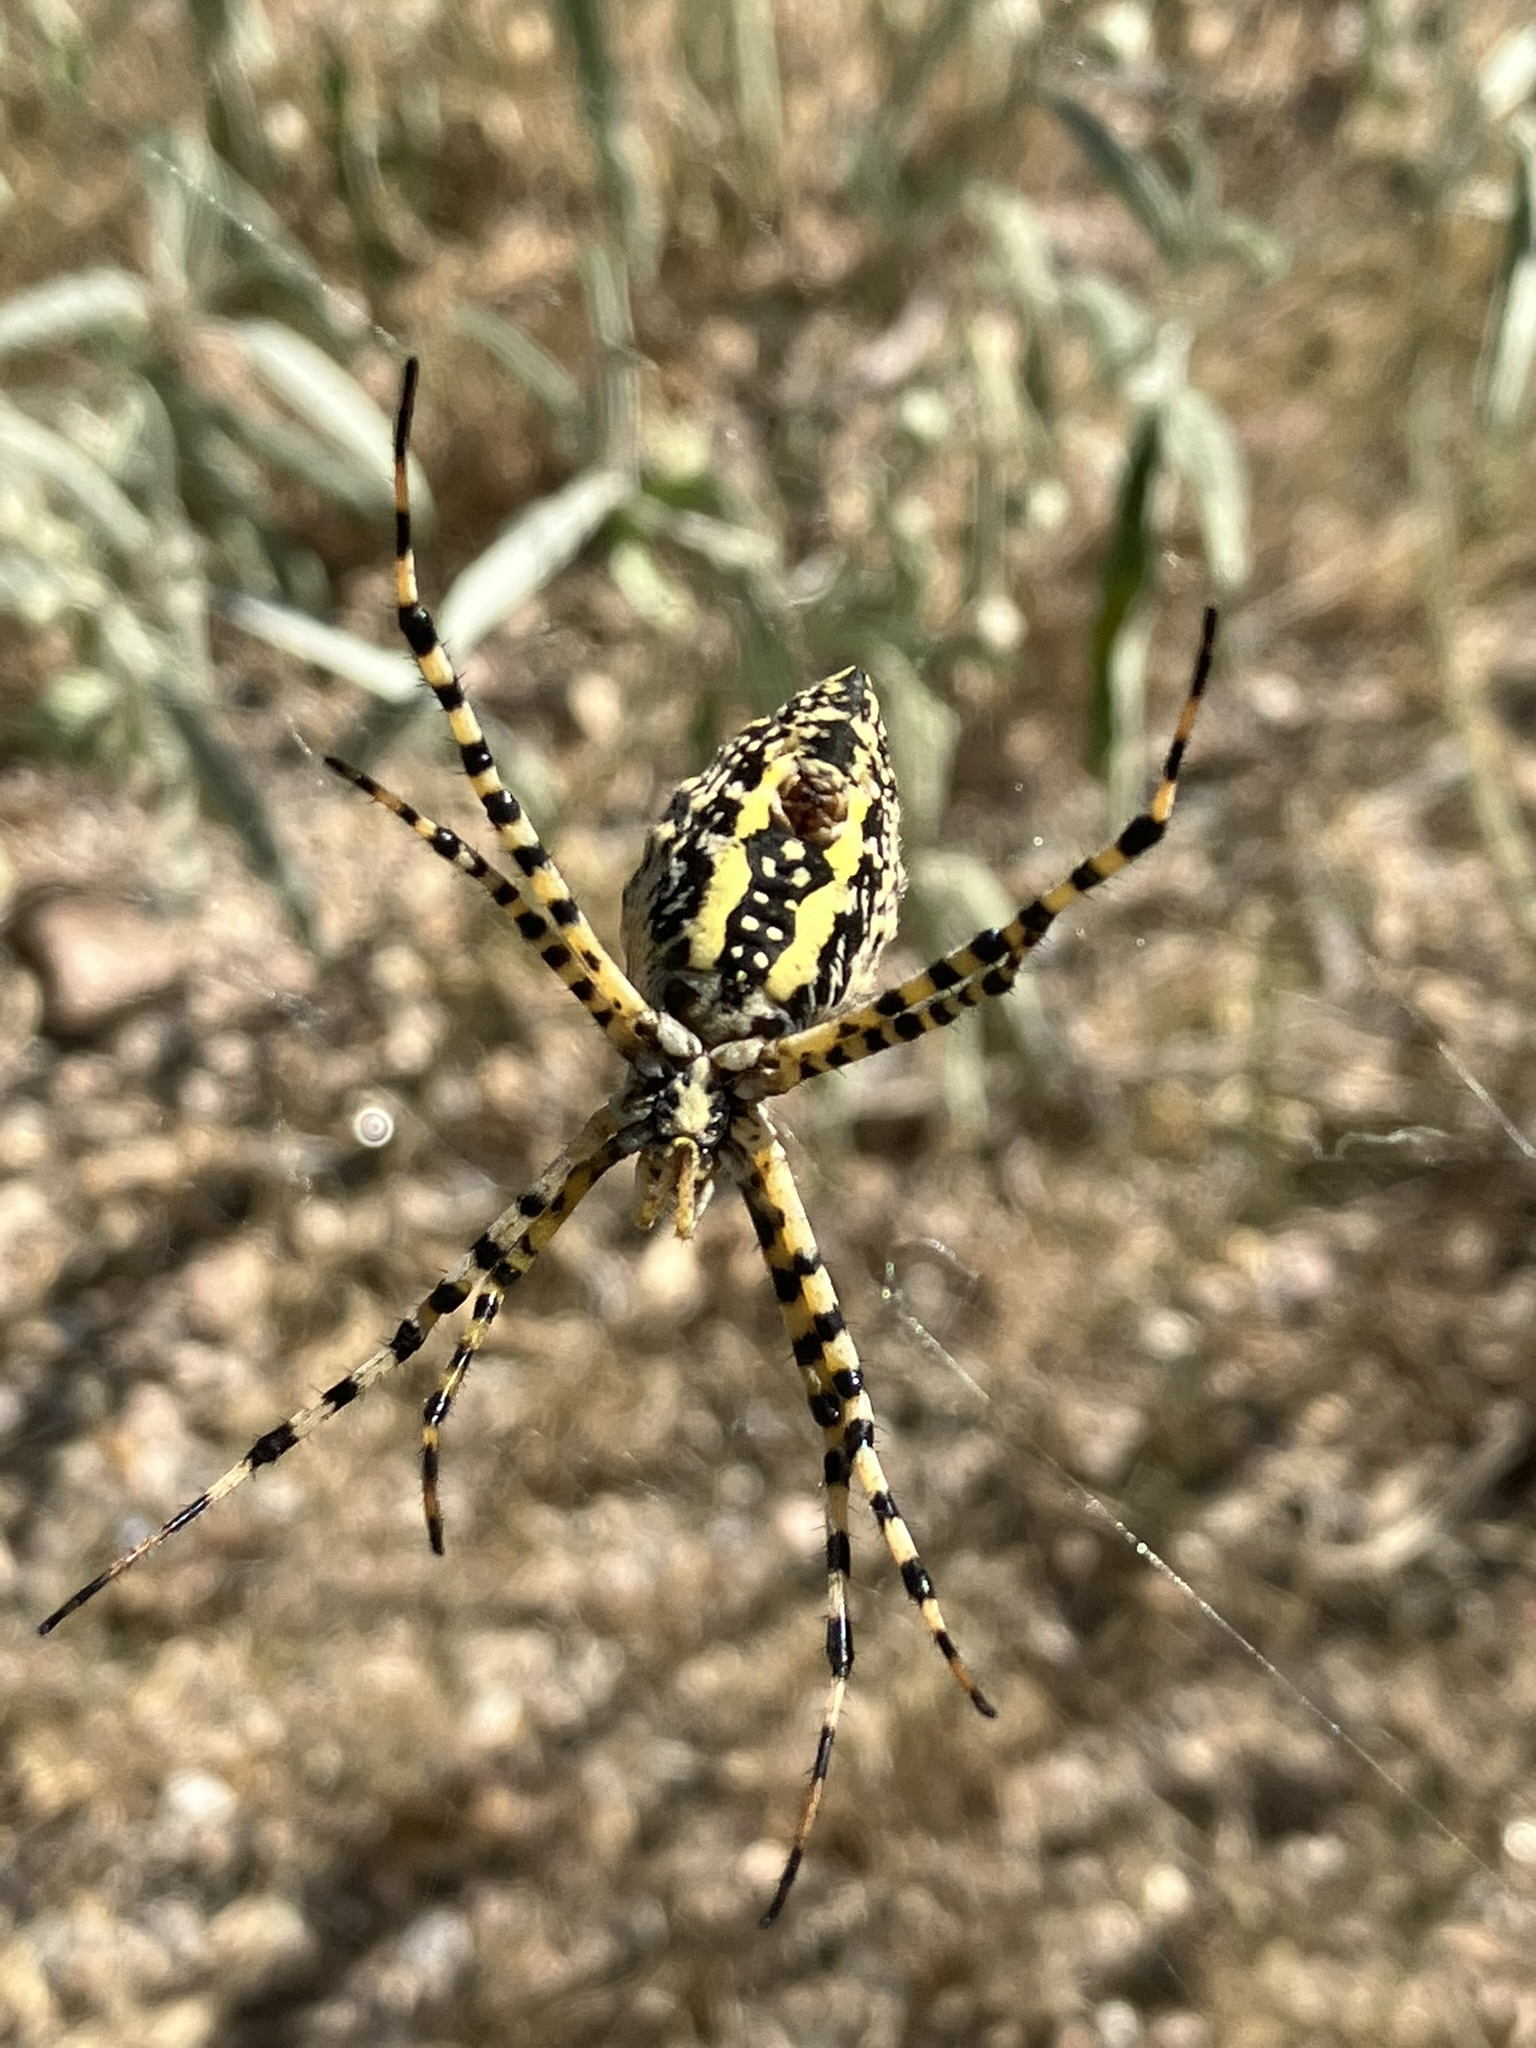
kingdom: Animalia
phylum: Arthropoda
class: Arachnida
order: Araneae
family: Araneidae
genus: Argiope
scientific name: Argiope trifasciata
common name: Banded garden spider
